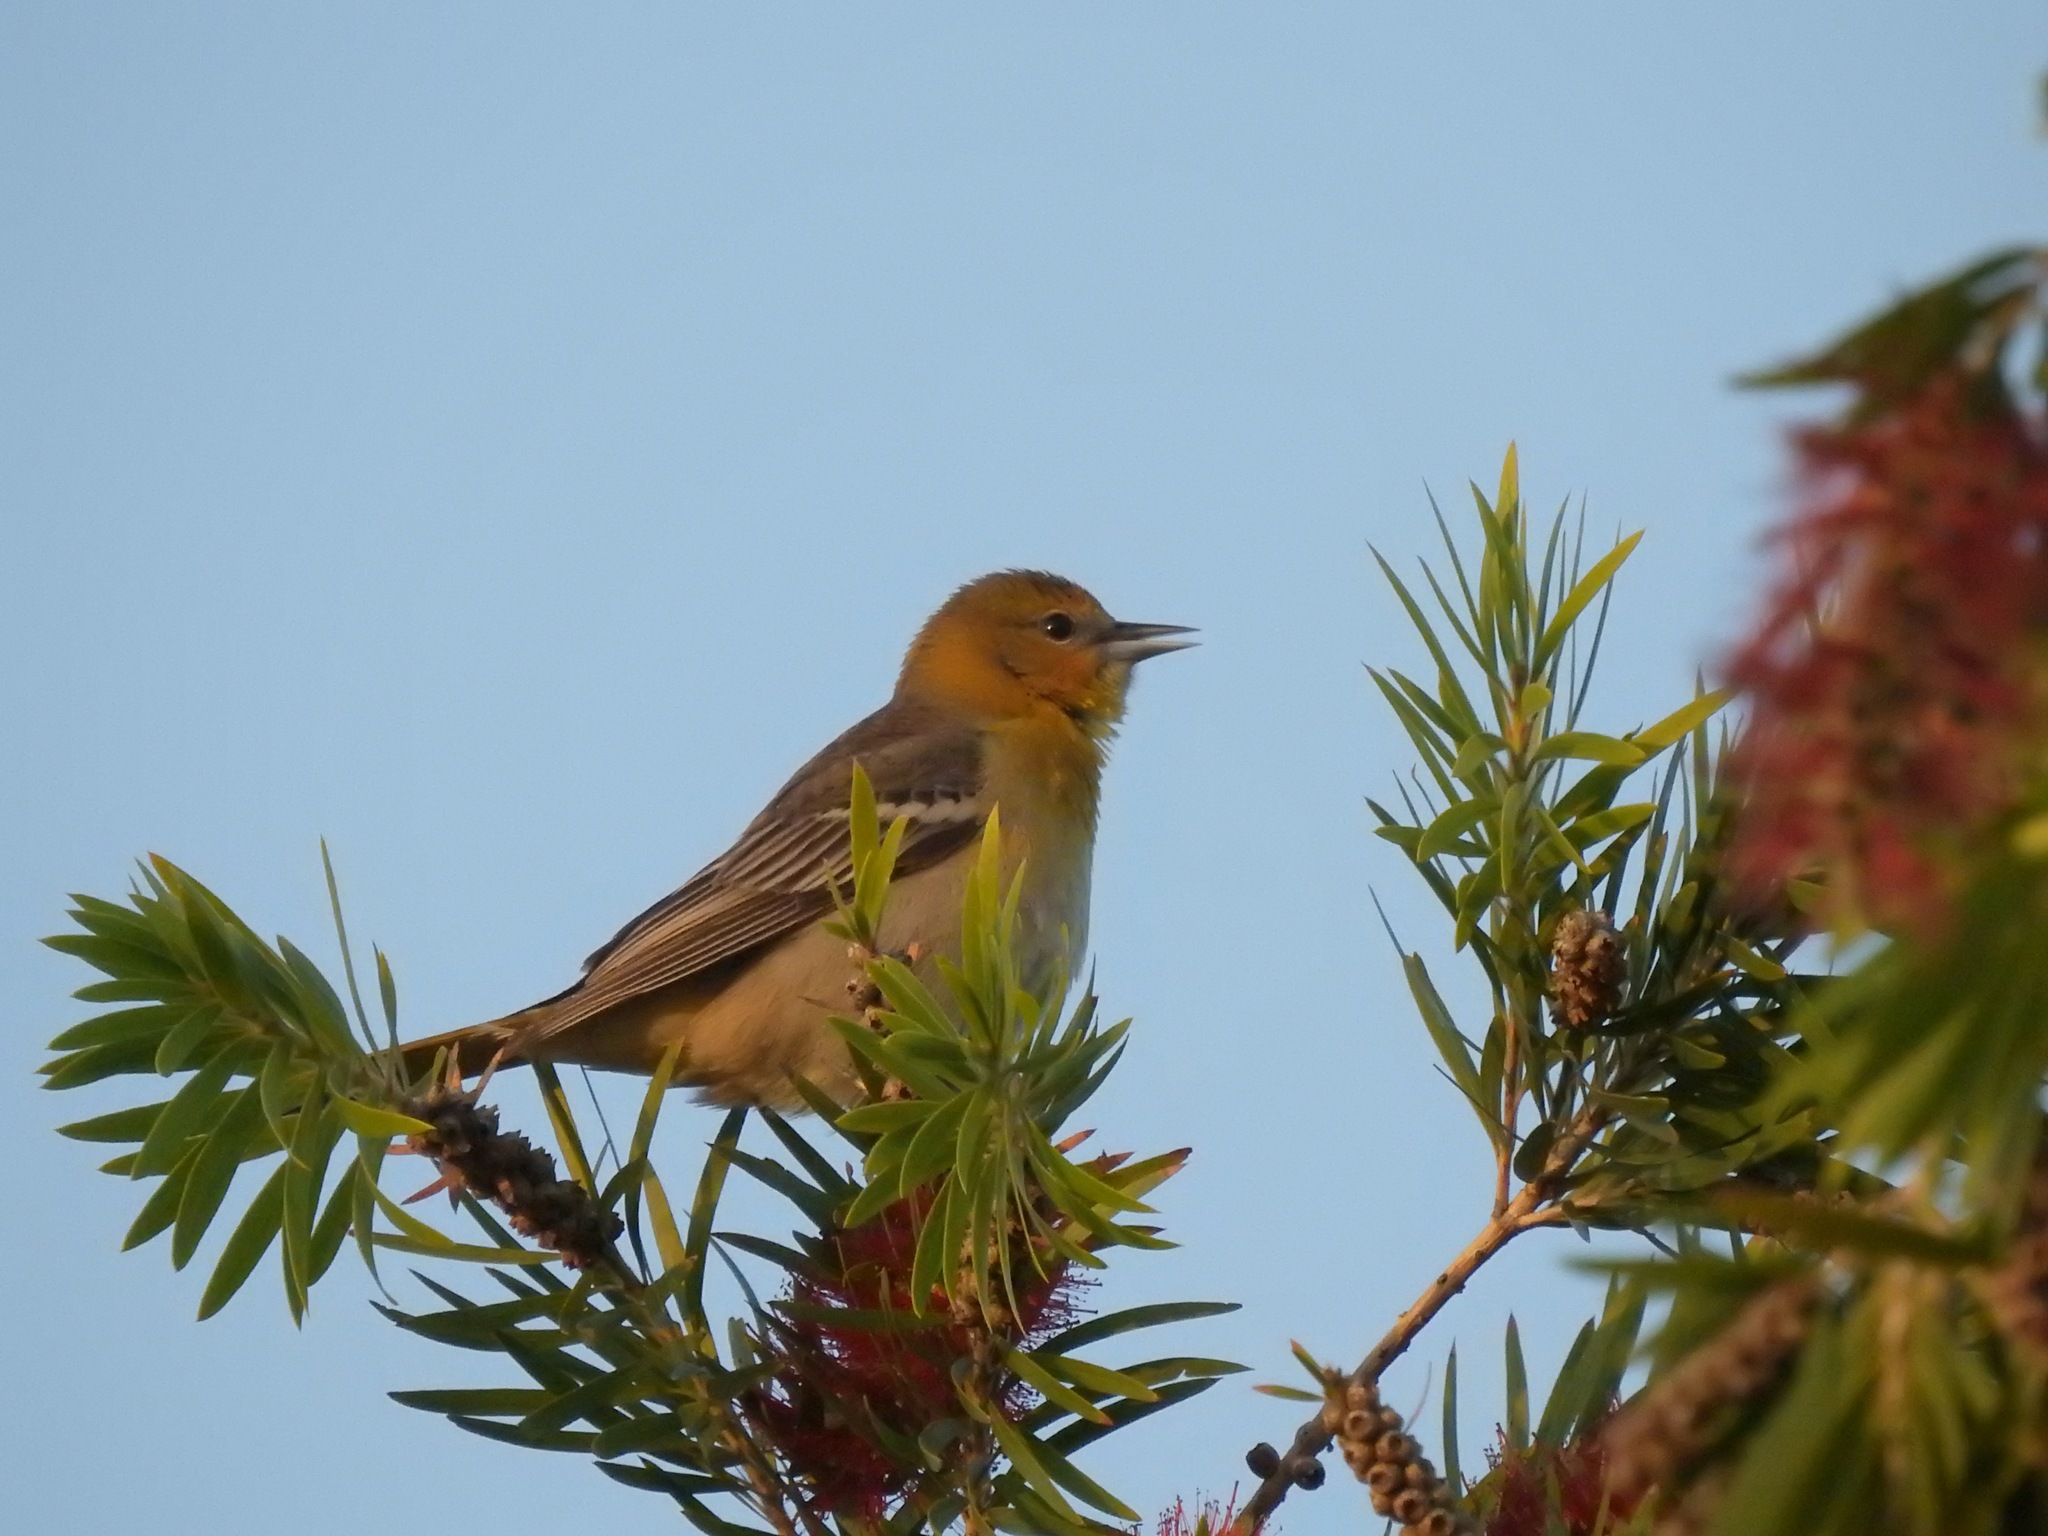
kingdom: Animalia
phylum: Chordata
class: Aves
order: Passeriformes
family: Icteridae
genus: Icterus
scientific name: Icterus bullockii
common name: Bullock's oriole
